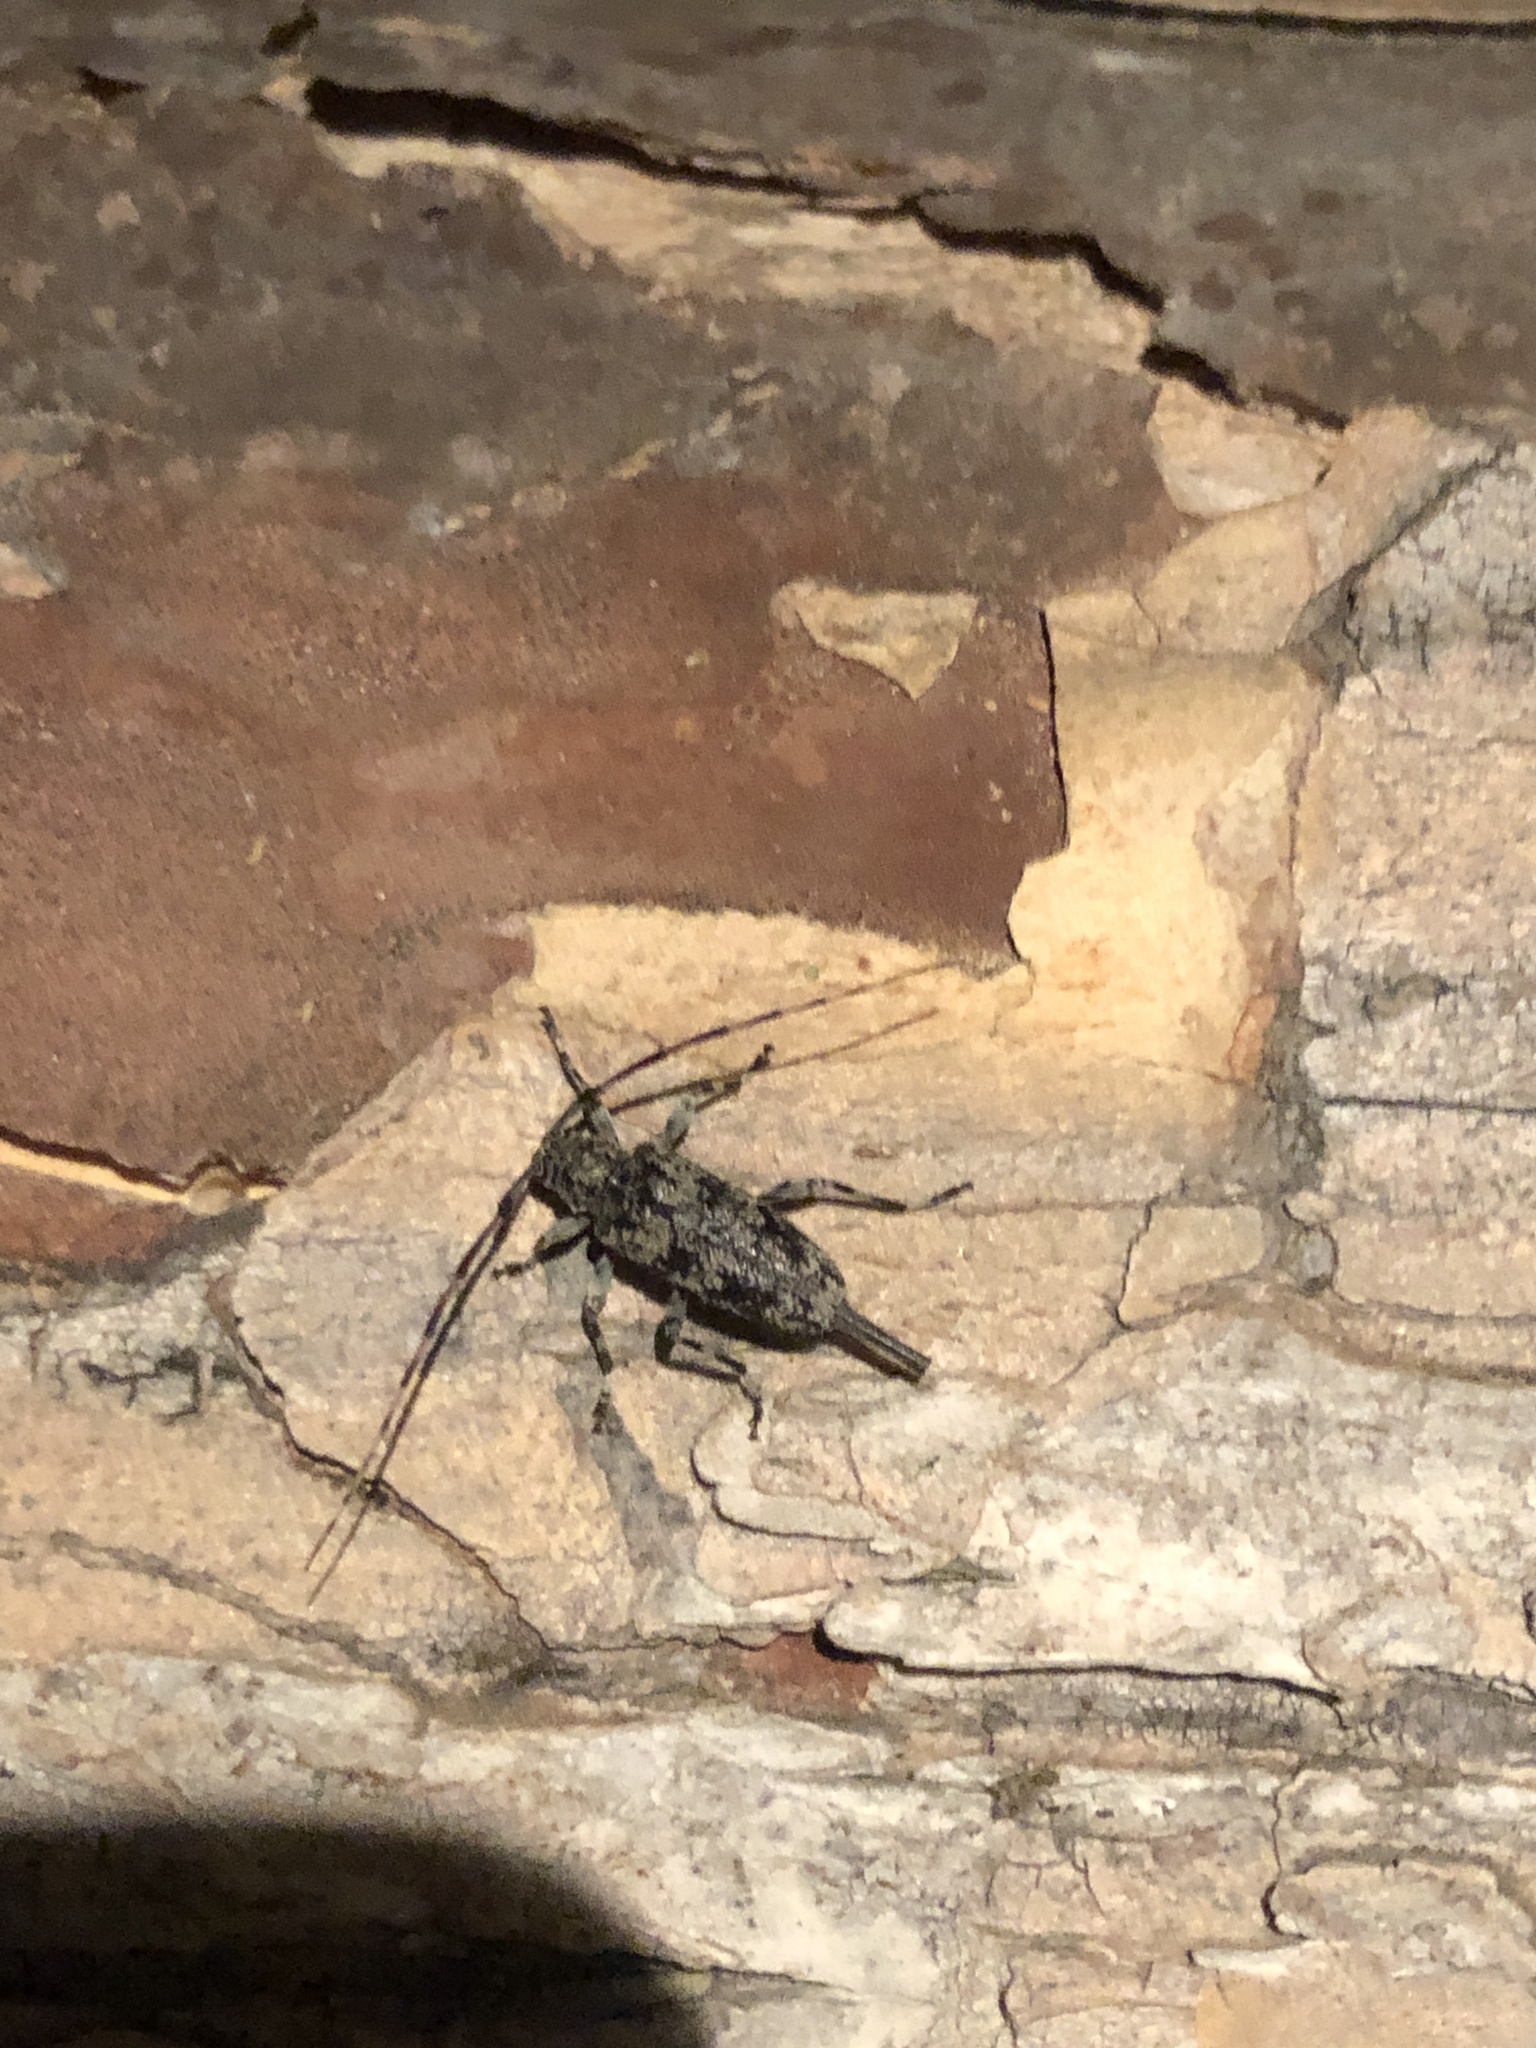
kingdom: Animalia
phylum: Arthropoda
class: Insecta
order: Coleoptera
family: Cerambycidae
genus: Graphisurus
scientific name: Graphisurus fasciatus
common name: Banded graphisurus
